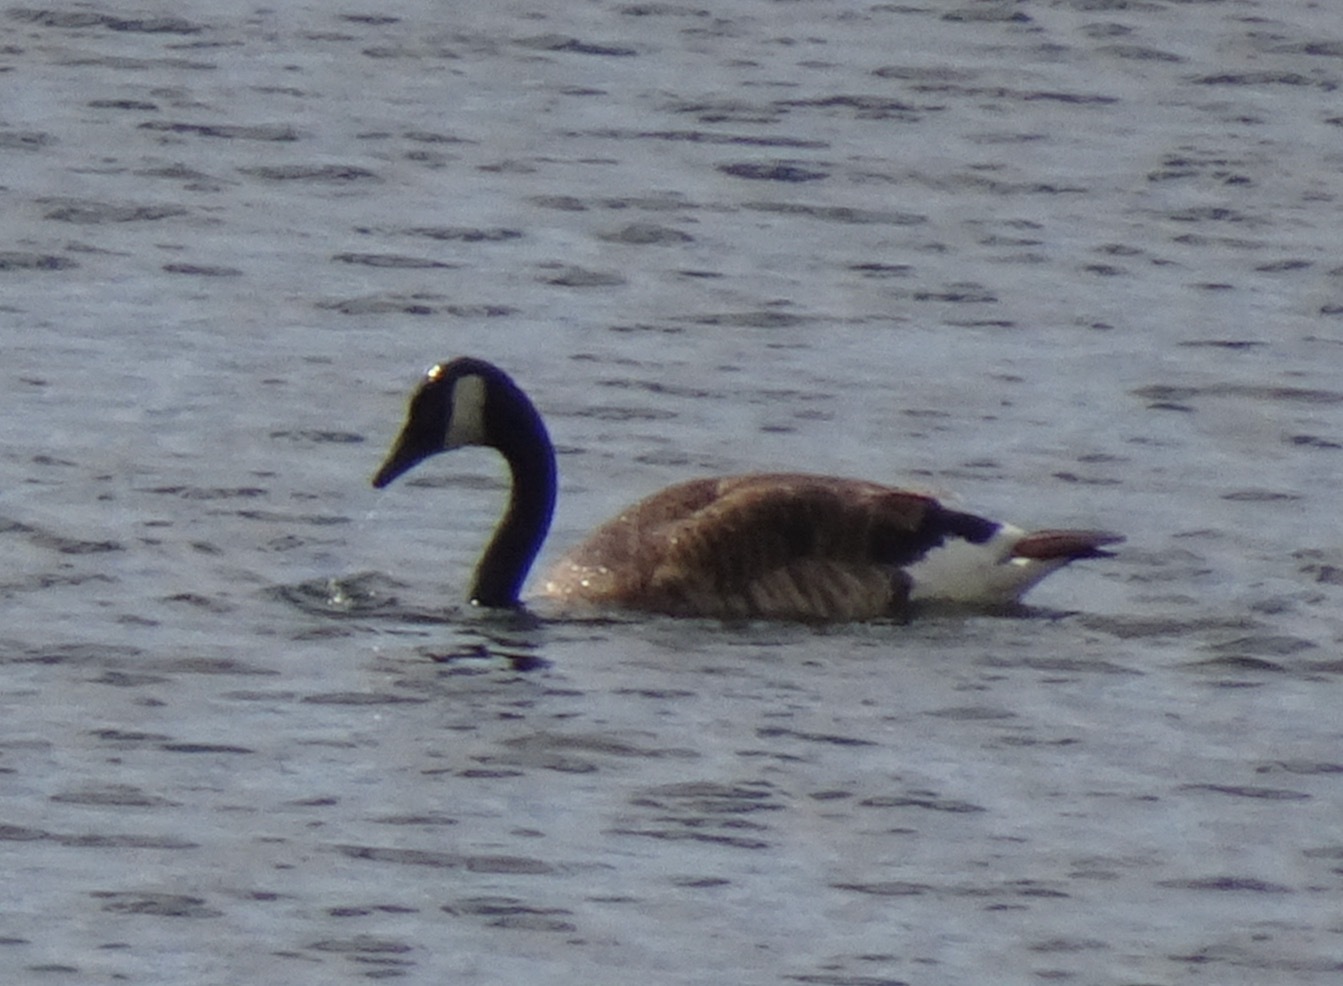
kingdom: Animalia
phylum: Chordata
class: Aves
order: Anseriformes
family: Anatidae
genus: Branta
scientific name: Branta canadensis
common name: Canada goose
